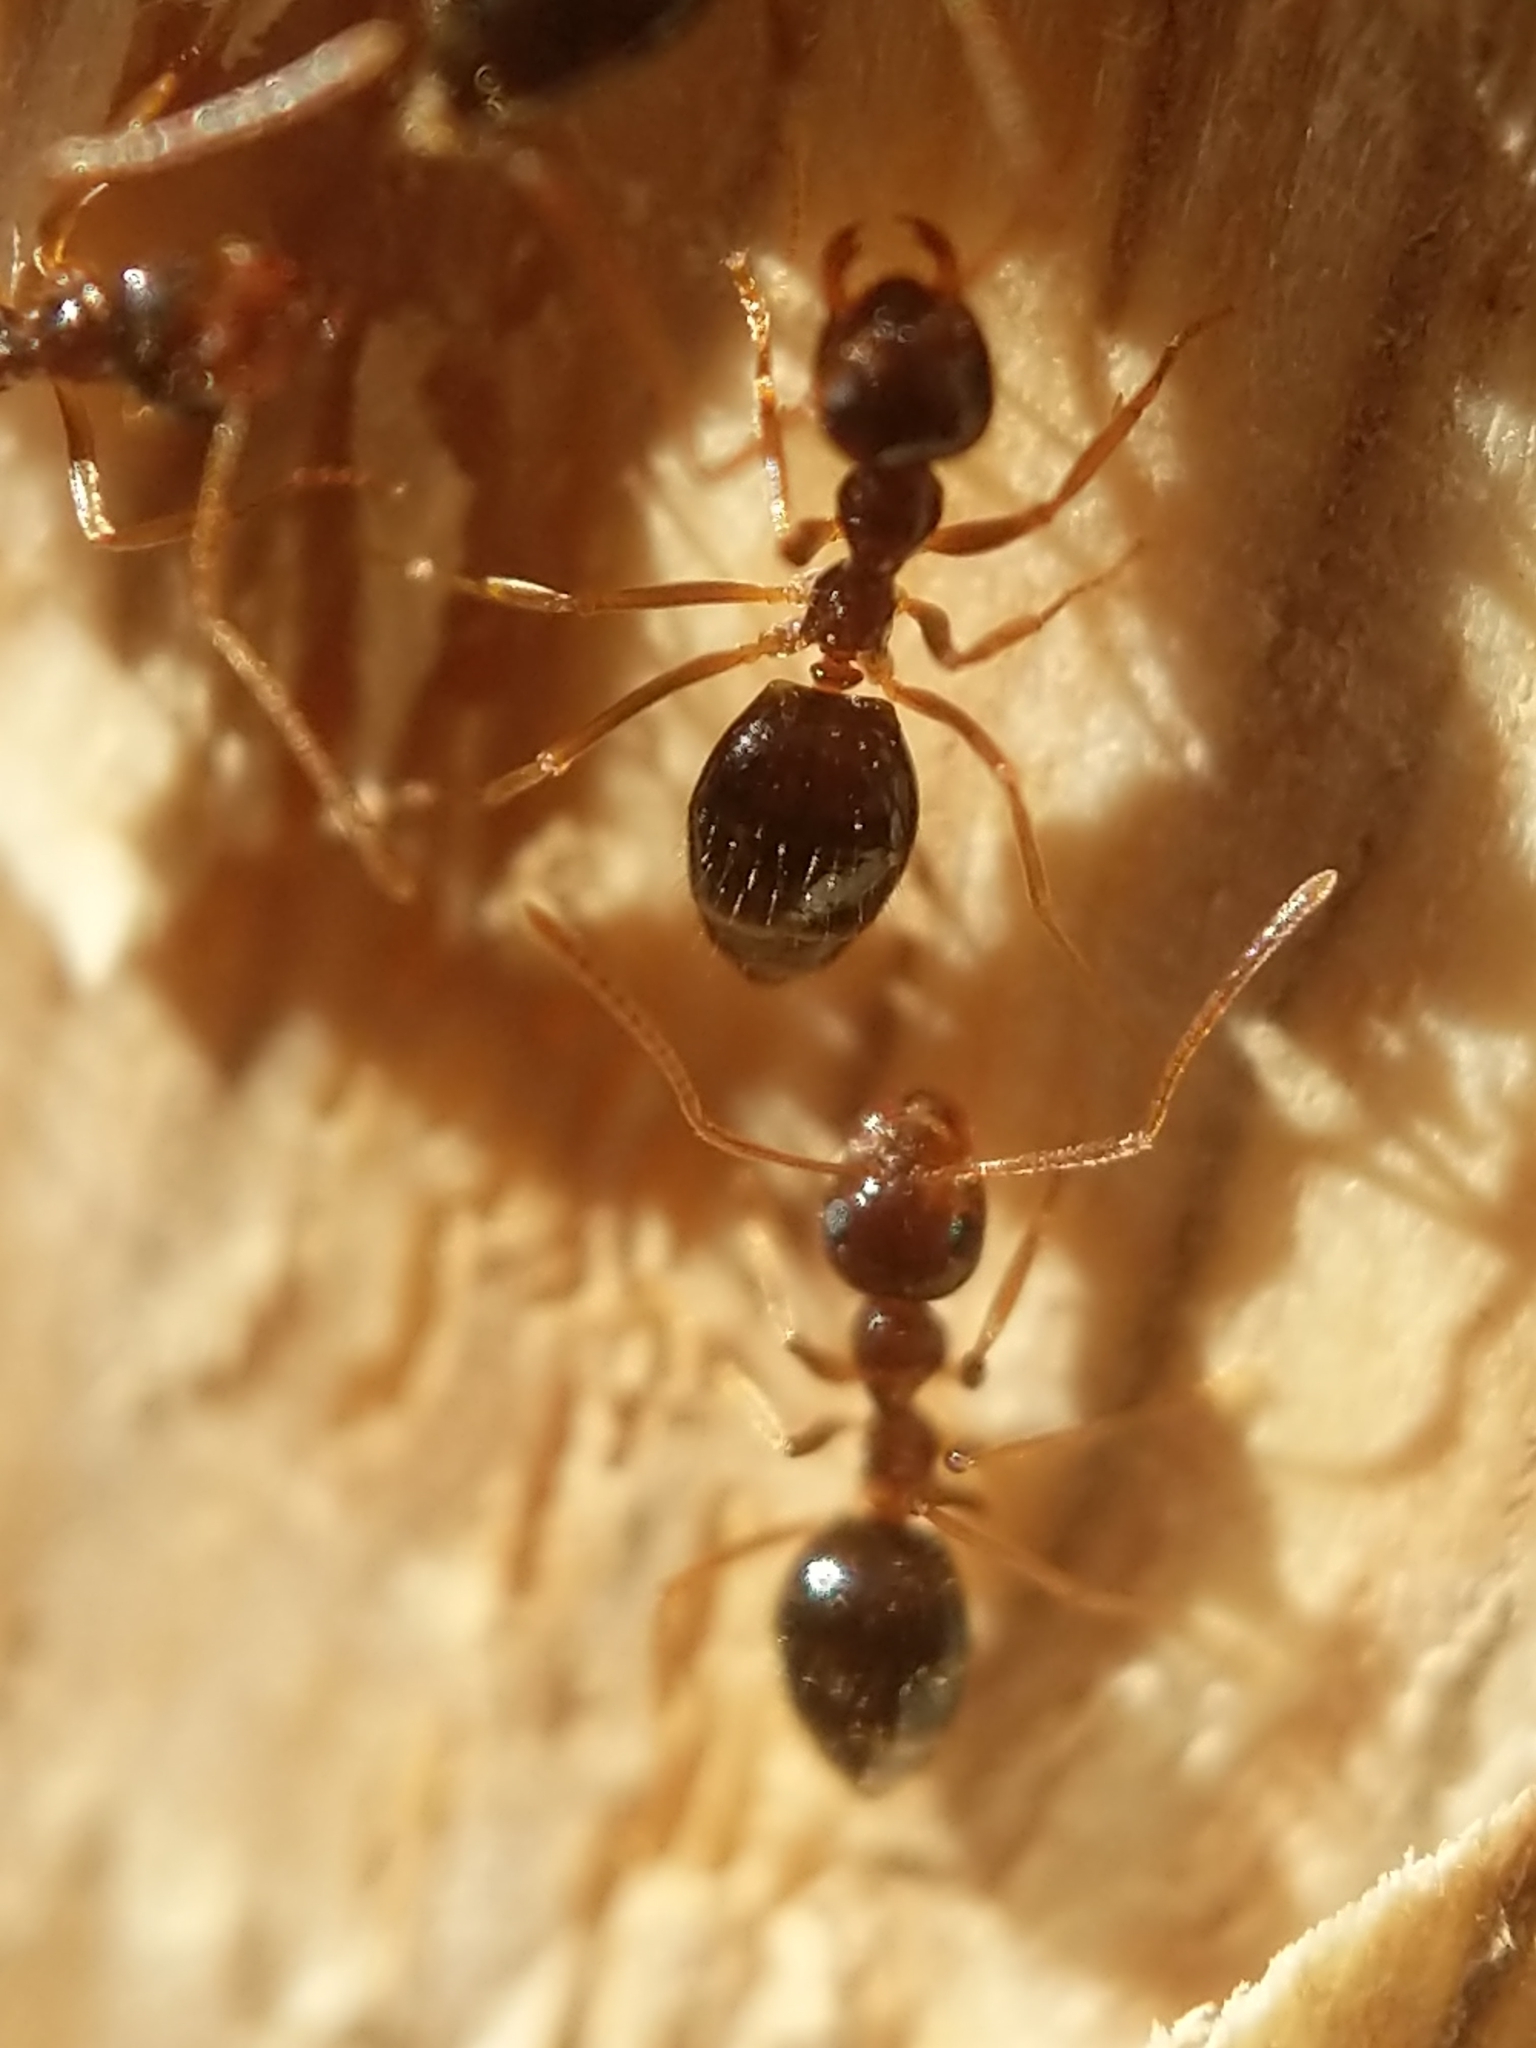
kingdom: Animalia
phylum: Arthropoda
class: Insecta
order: Hymenoptera
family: Formicidae
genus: Prenolepis
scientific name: Prenolepis imparis
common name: Small honey ant
